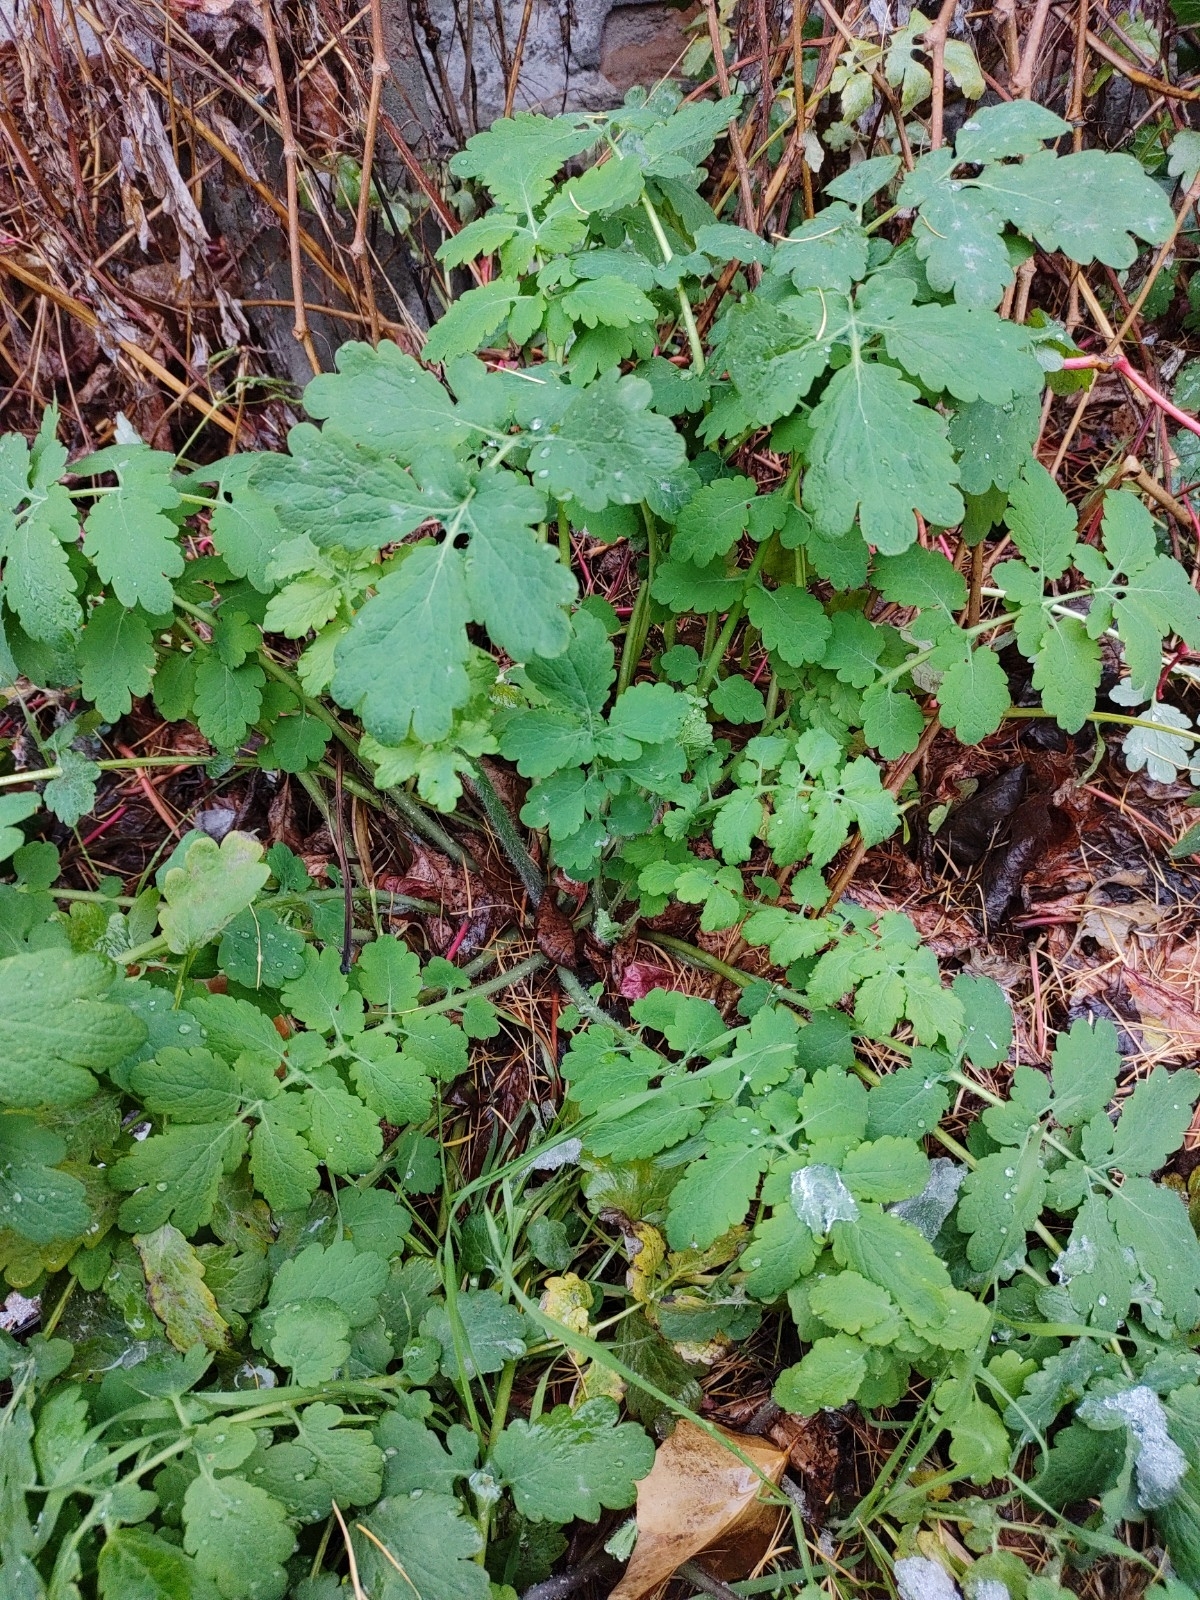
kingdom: Plantae
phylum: Tracheophyta
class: Magnoliopsida
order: Ranunculales
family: Papaveraceae
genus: Chelidonium
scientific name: Chelidonium majus
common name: Greater celandine
